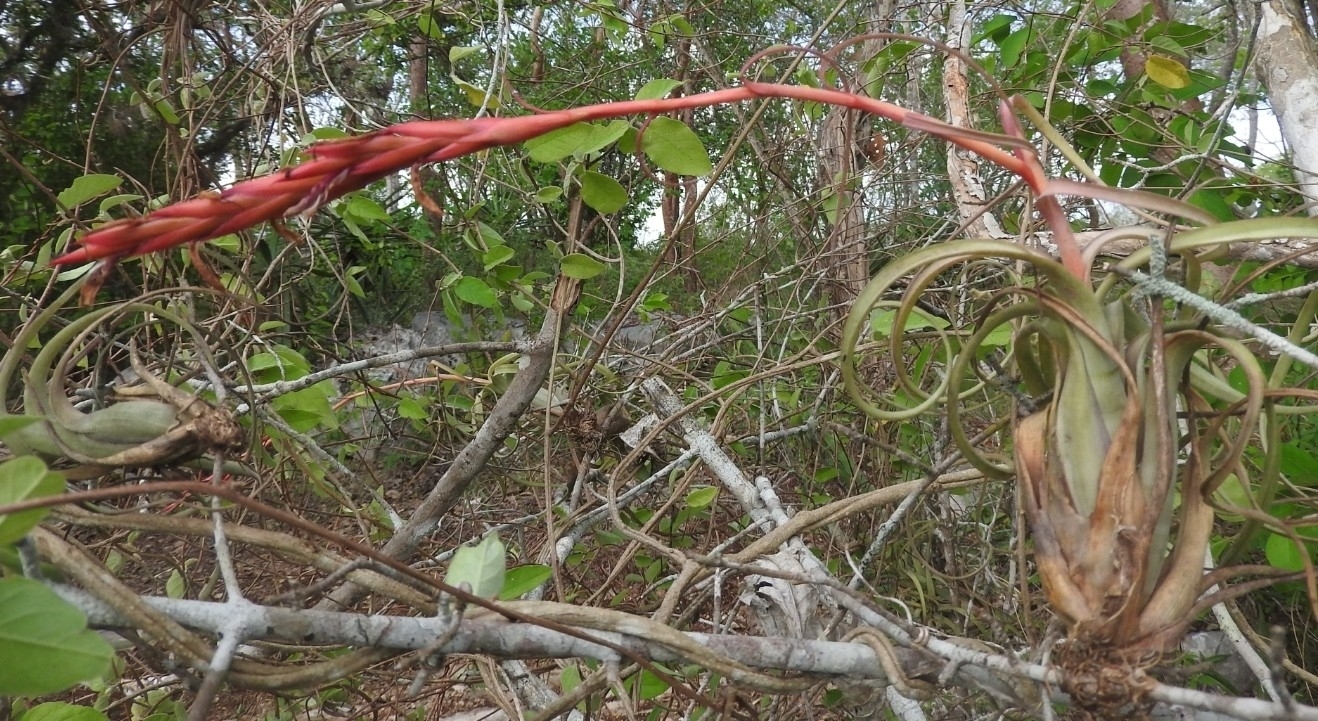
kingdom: Plantae
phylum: Tracheophyta
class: Liliopsida
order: Poales
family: Bromeliaceae
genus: Tillandsia
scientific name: Tillandsia balbisiana
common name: Northern needleleaf
